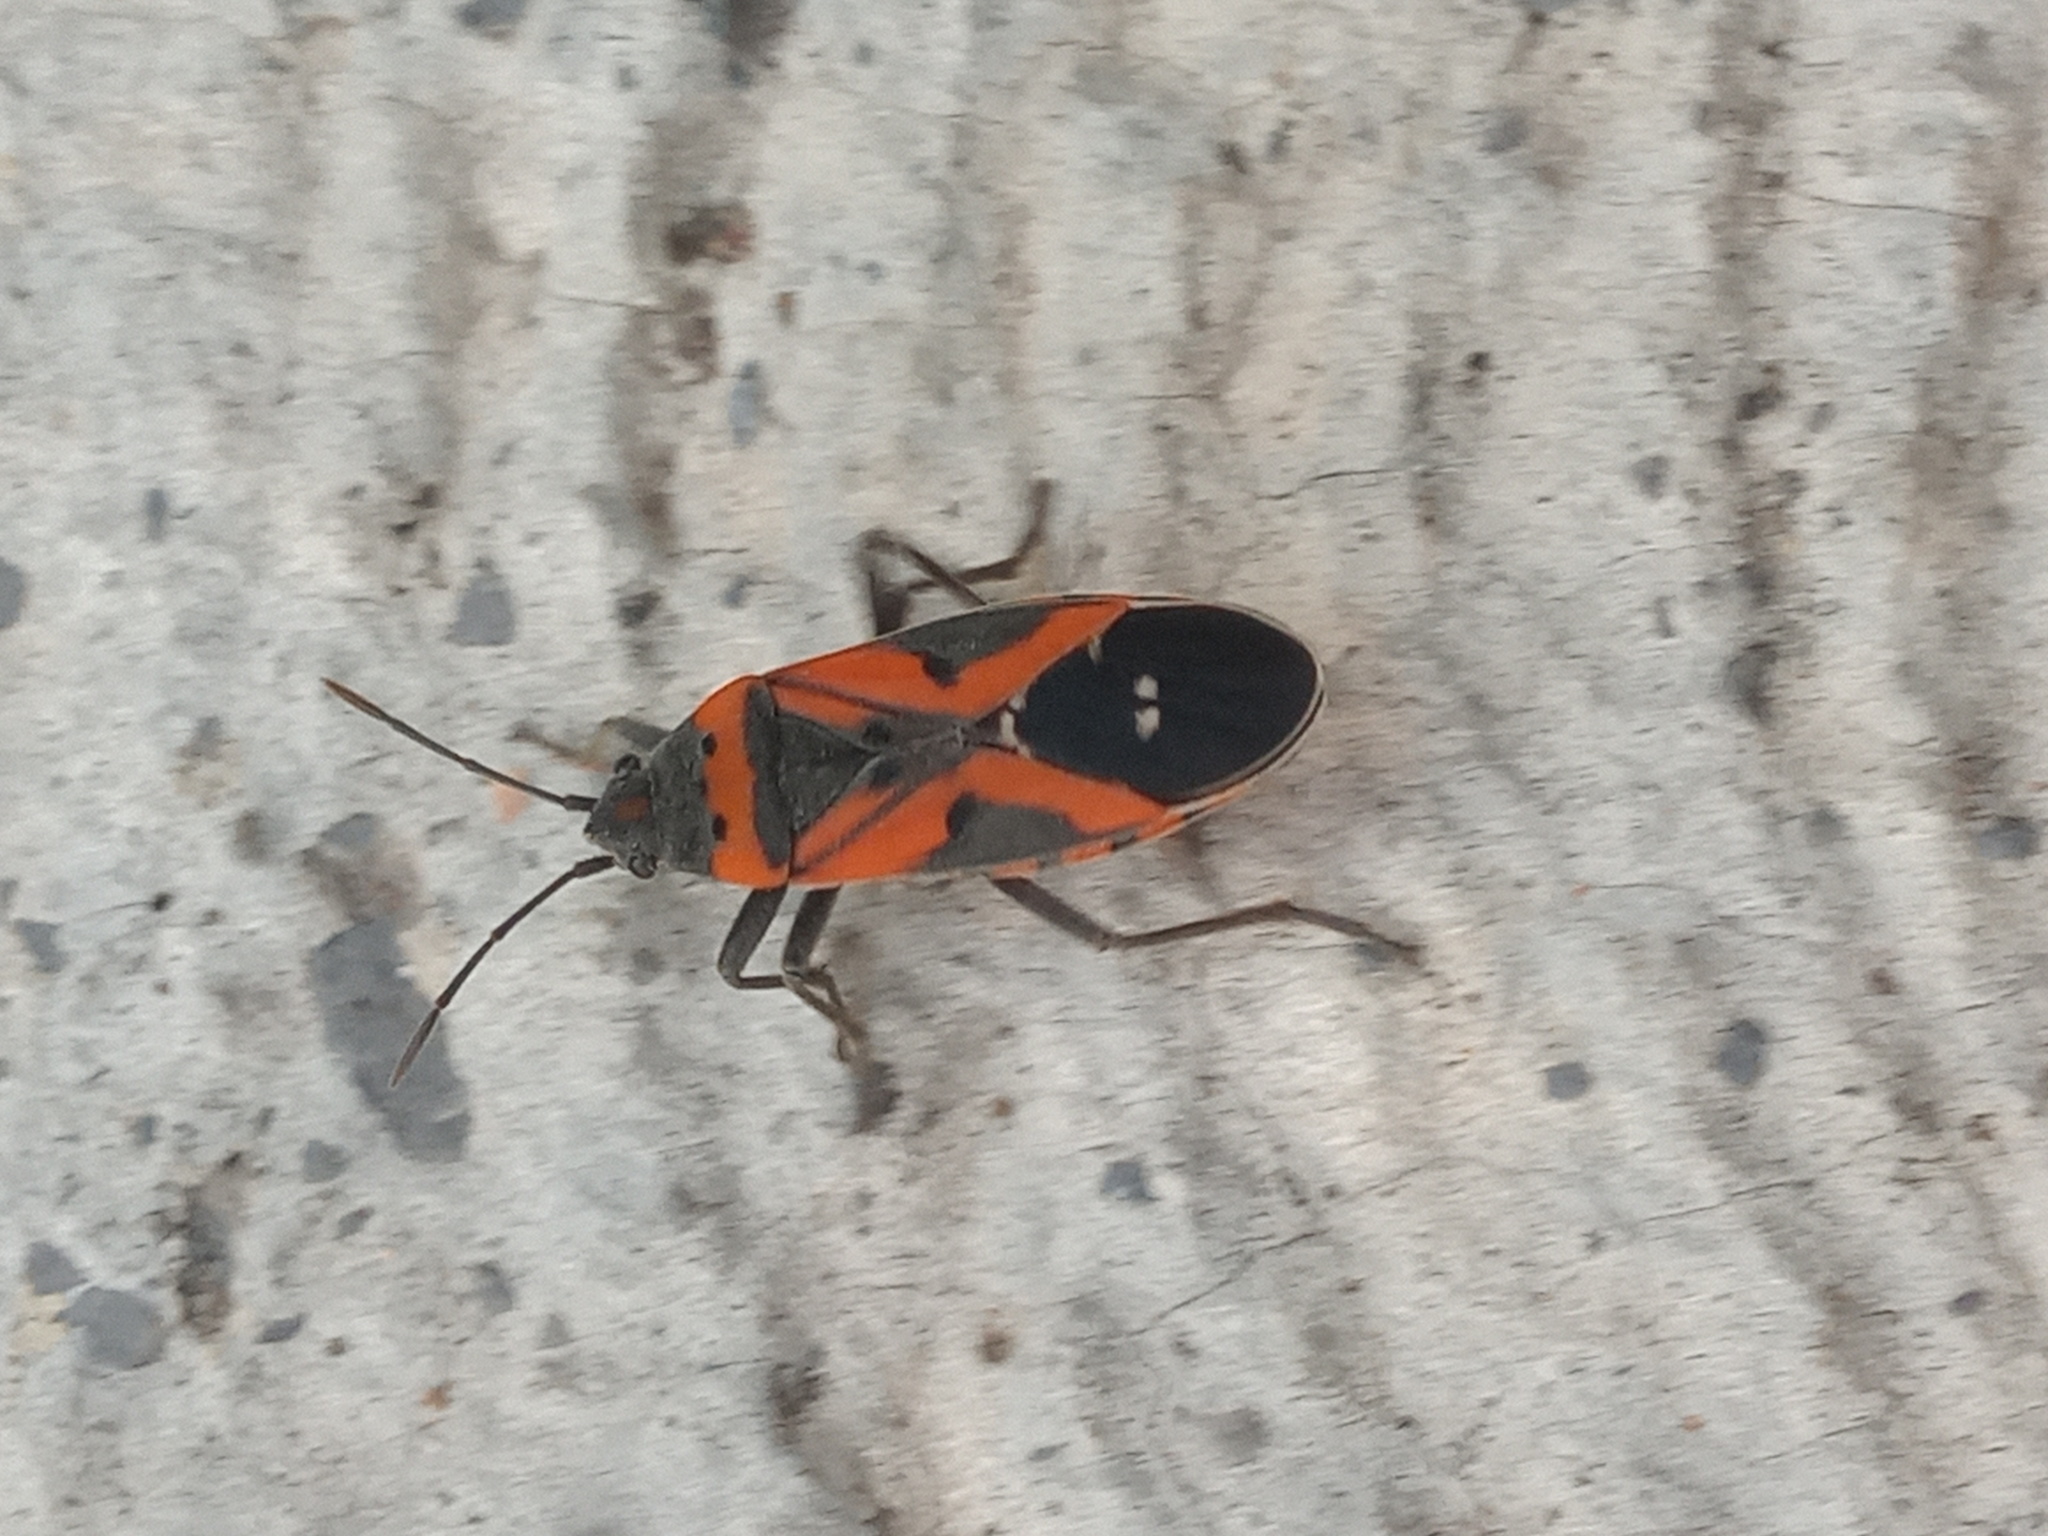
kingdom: Animalia
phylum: Arthropoda
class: Insecta
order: Hemiptera
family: Lygaeidae
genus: Lygaeus
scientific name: Lygaeus reclivatus
